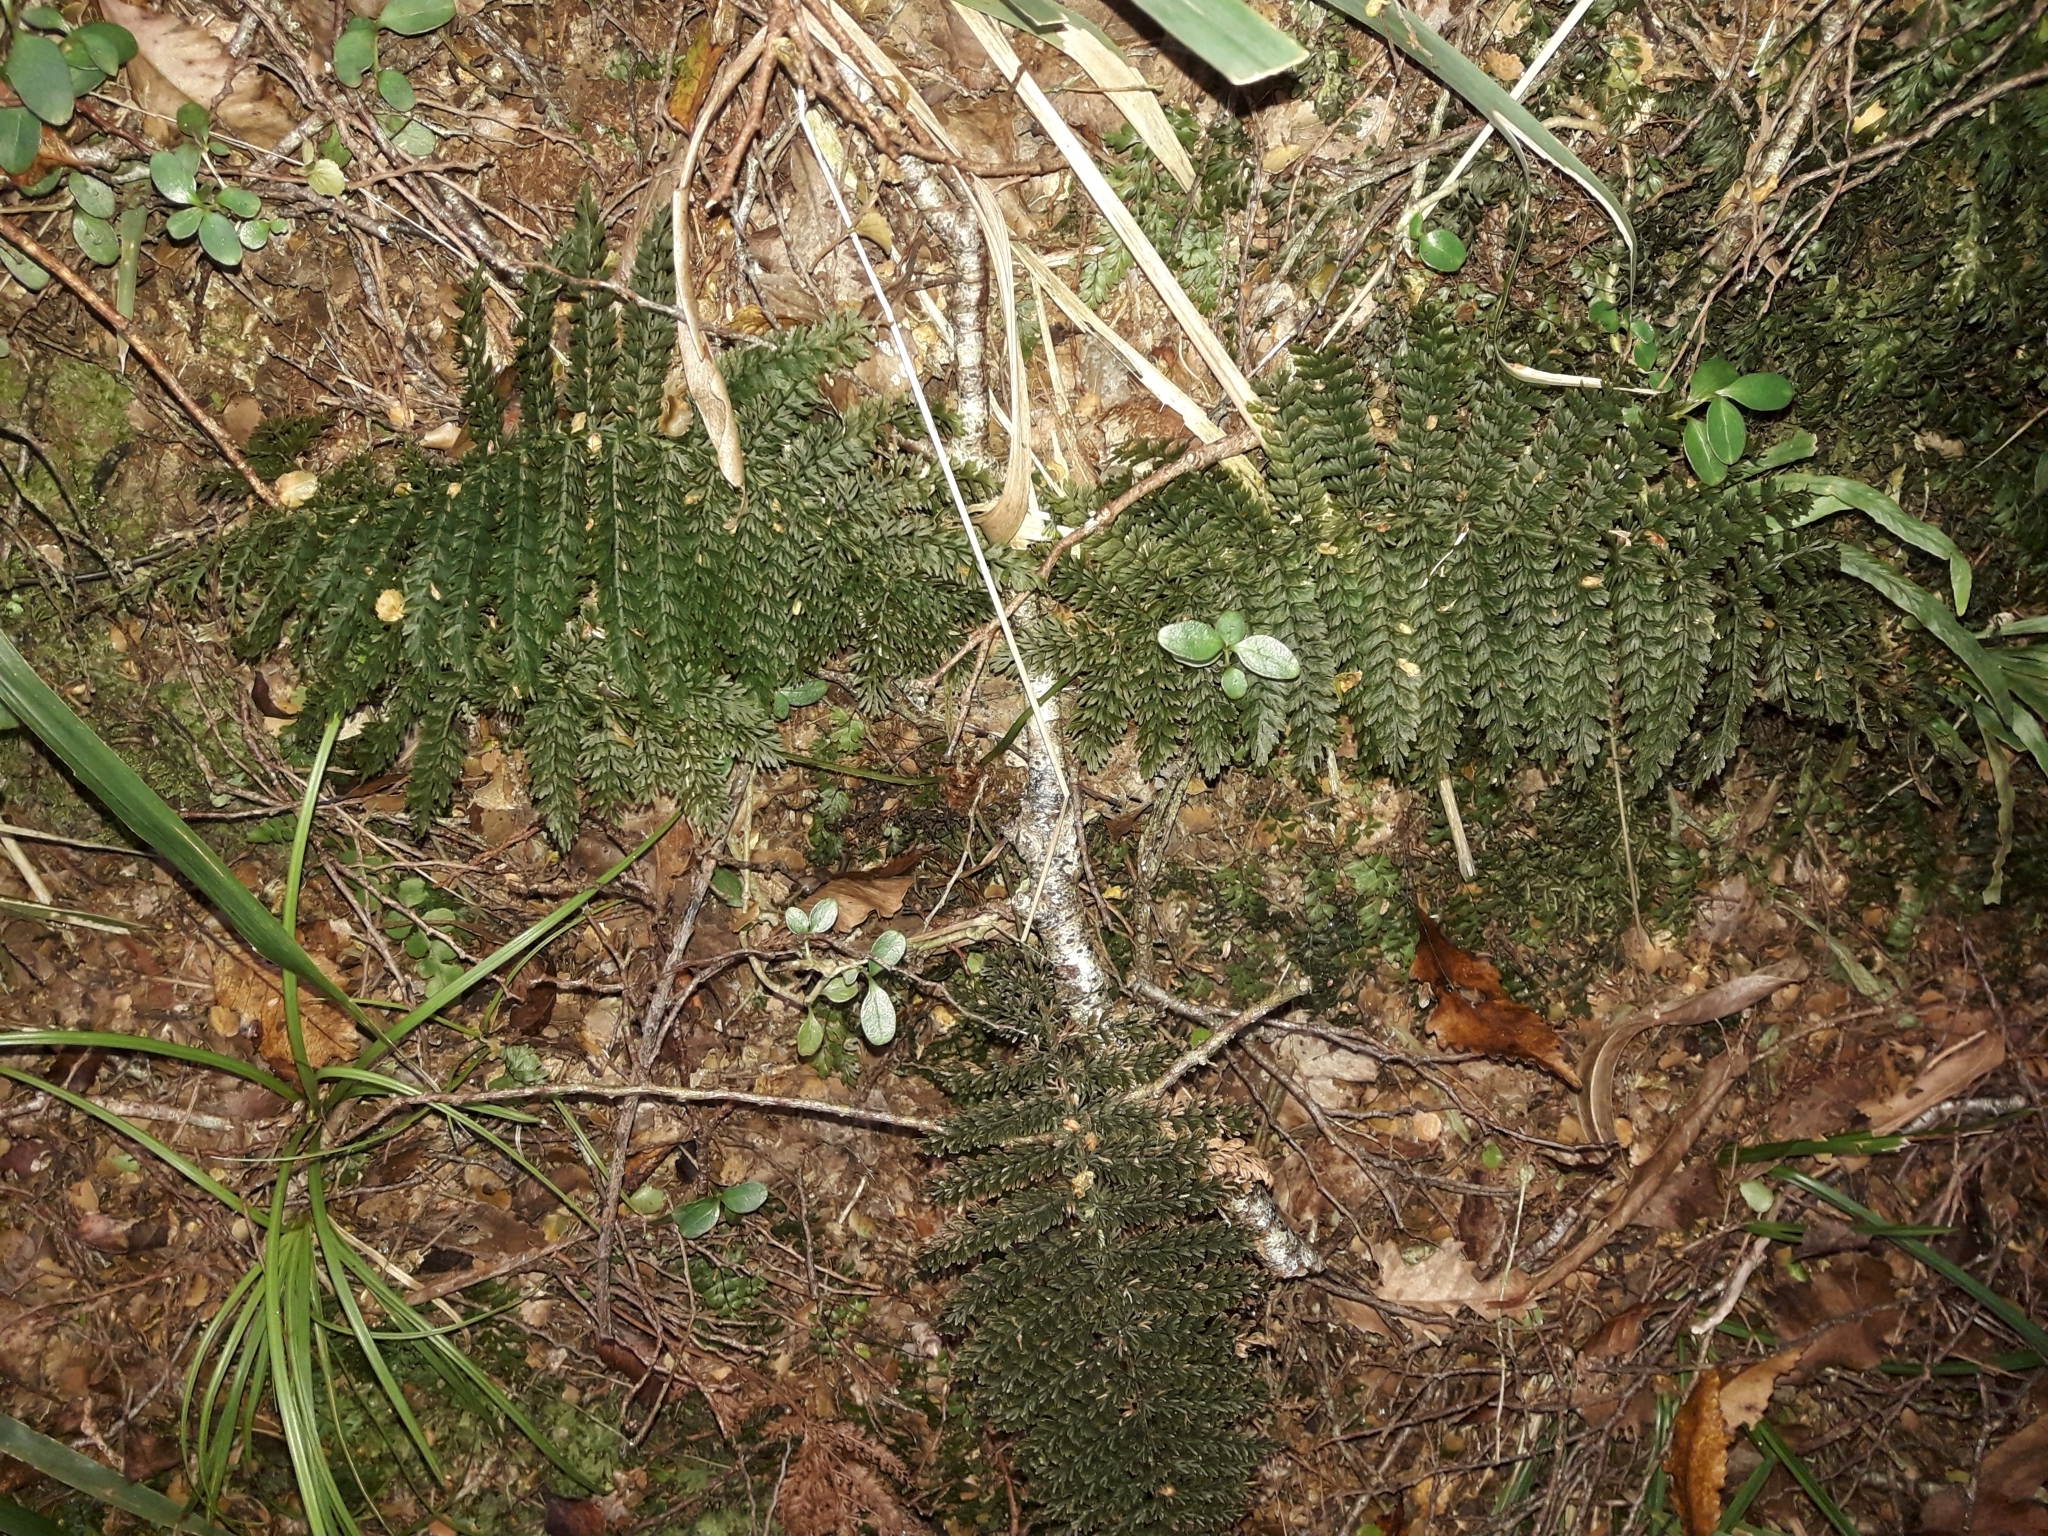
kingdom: Plantae
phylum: Tracheophyta
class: Polypodiopsida
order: Osmundales
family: Osmundaceae
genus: Leptopteris
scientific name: Leptopteris superba
